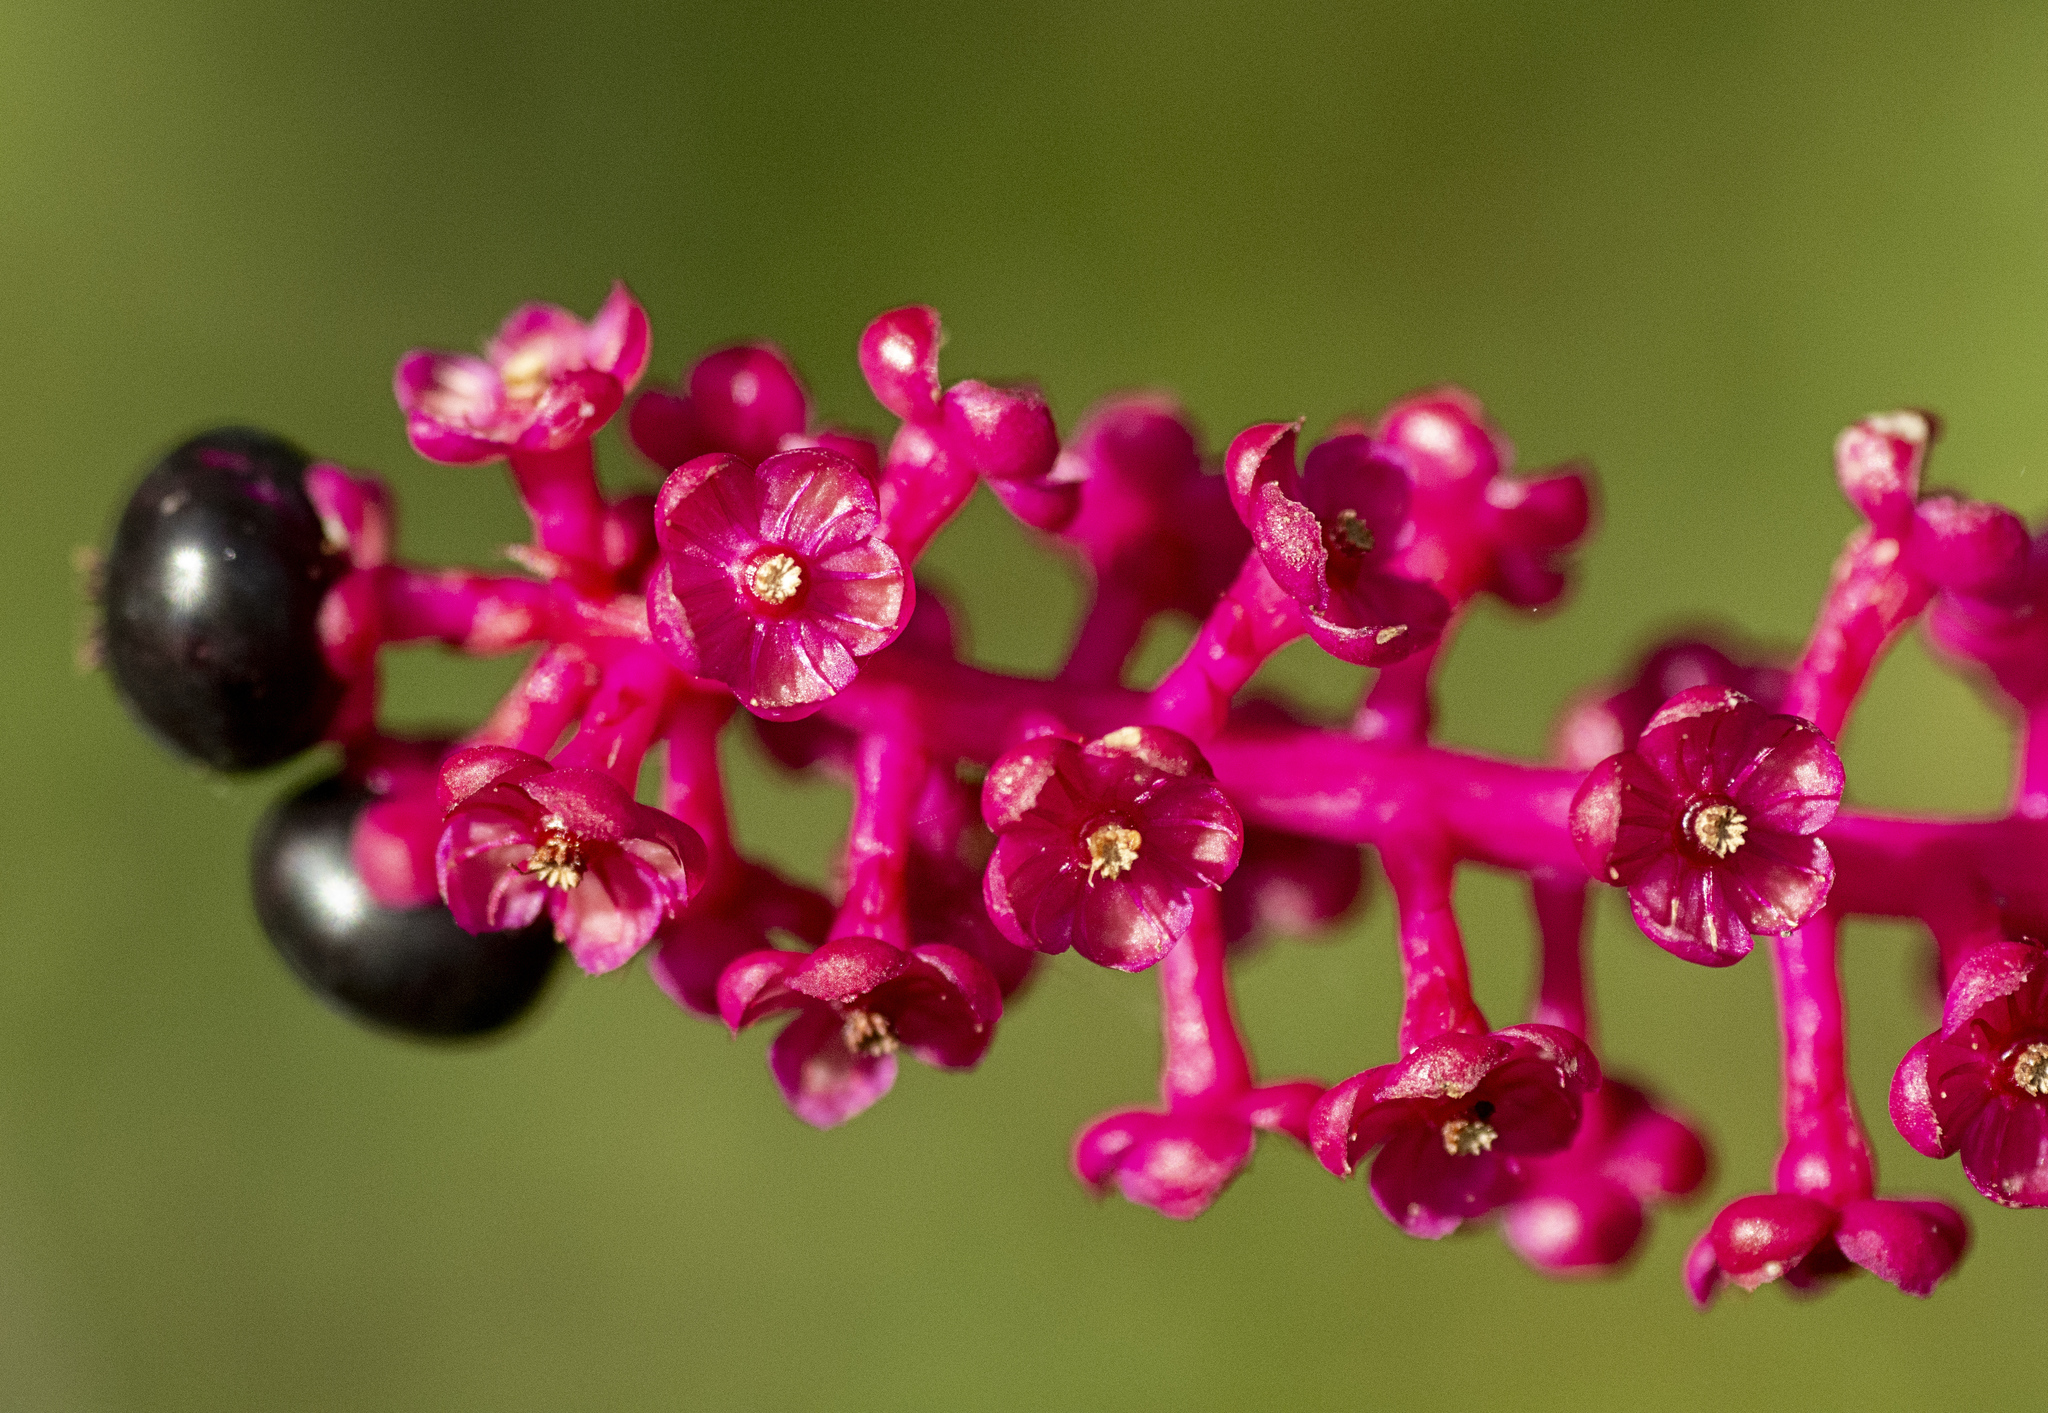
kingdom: Plantae
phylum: Tracheophyta
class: Magnoliopsida
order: Caryophyllales
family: Phytolaccaceae
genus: Phytolacca
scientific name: Phytolacca americana
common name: American pokeweed
